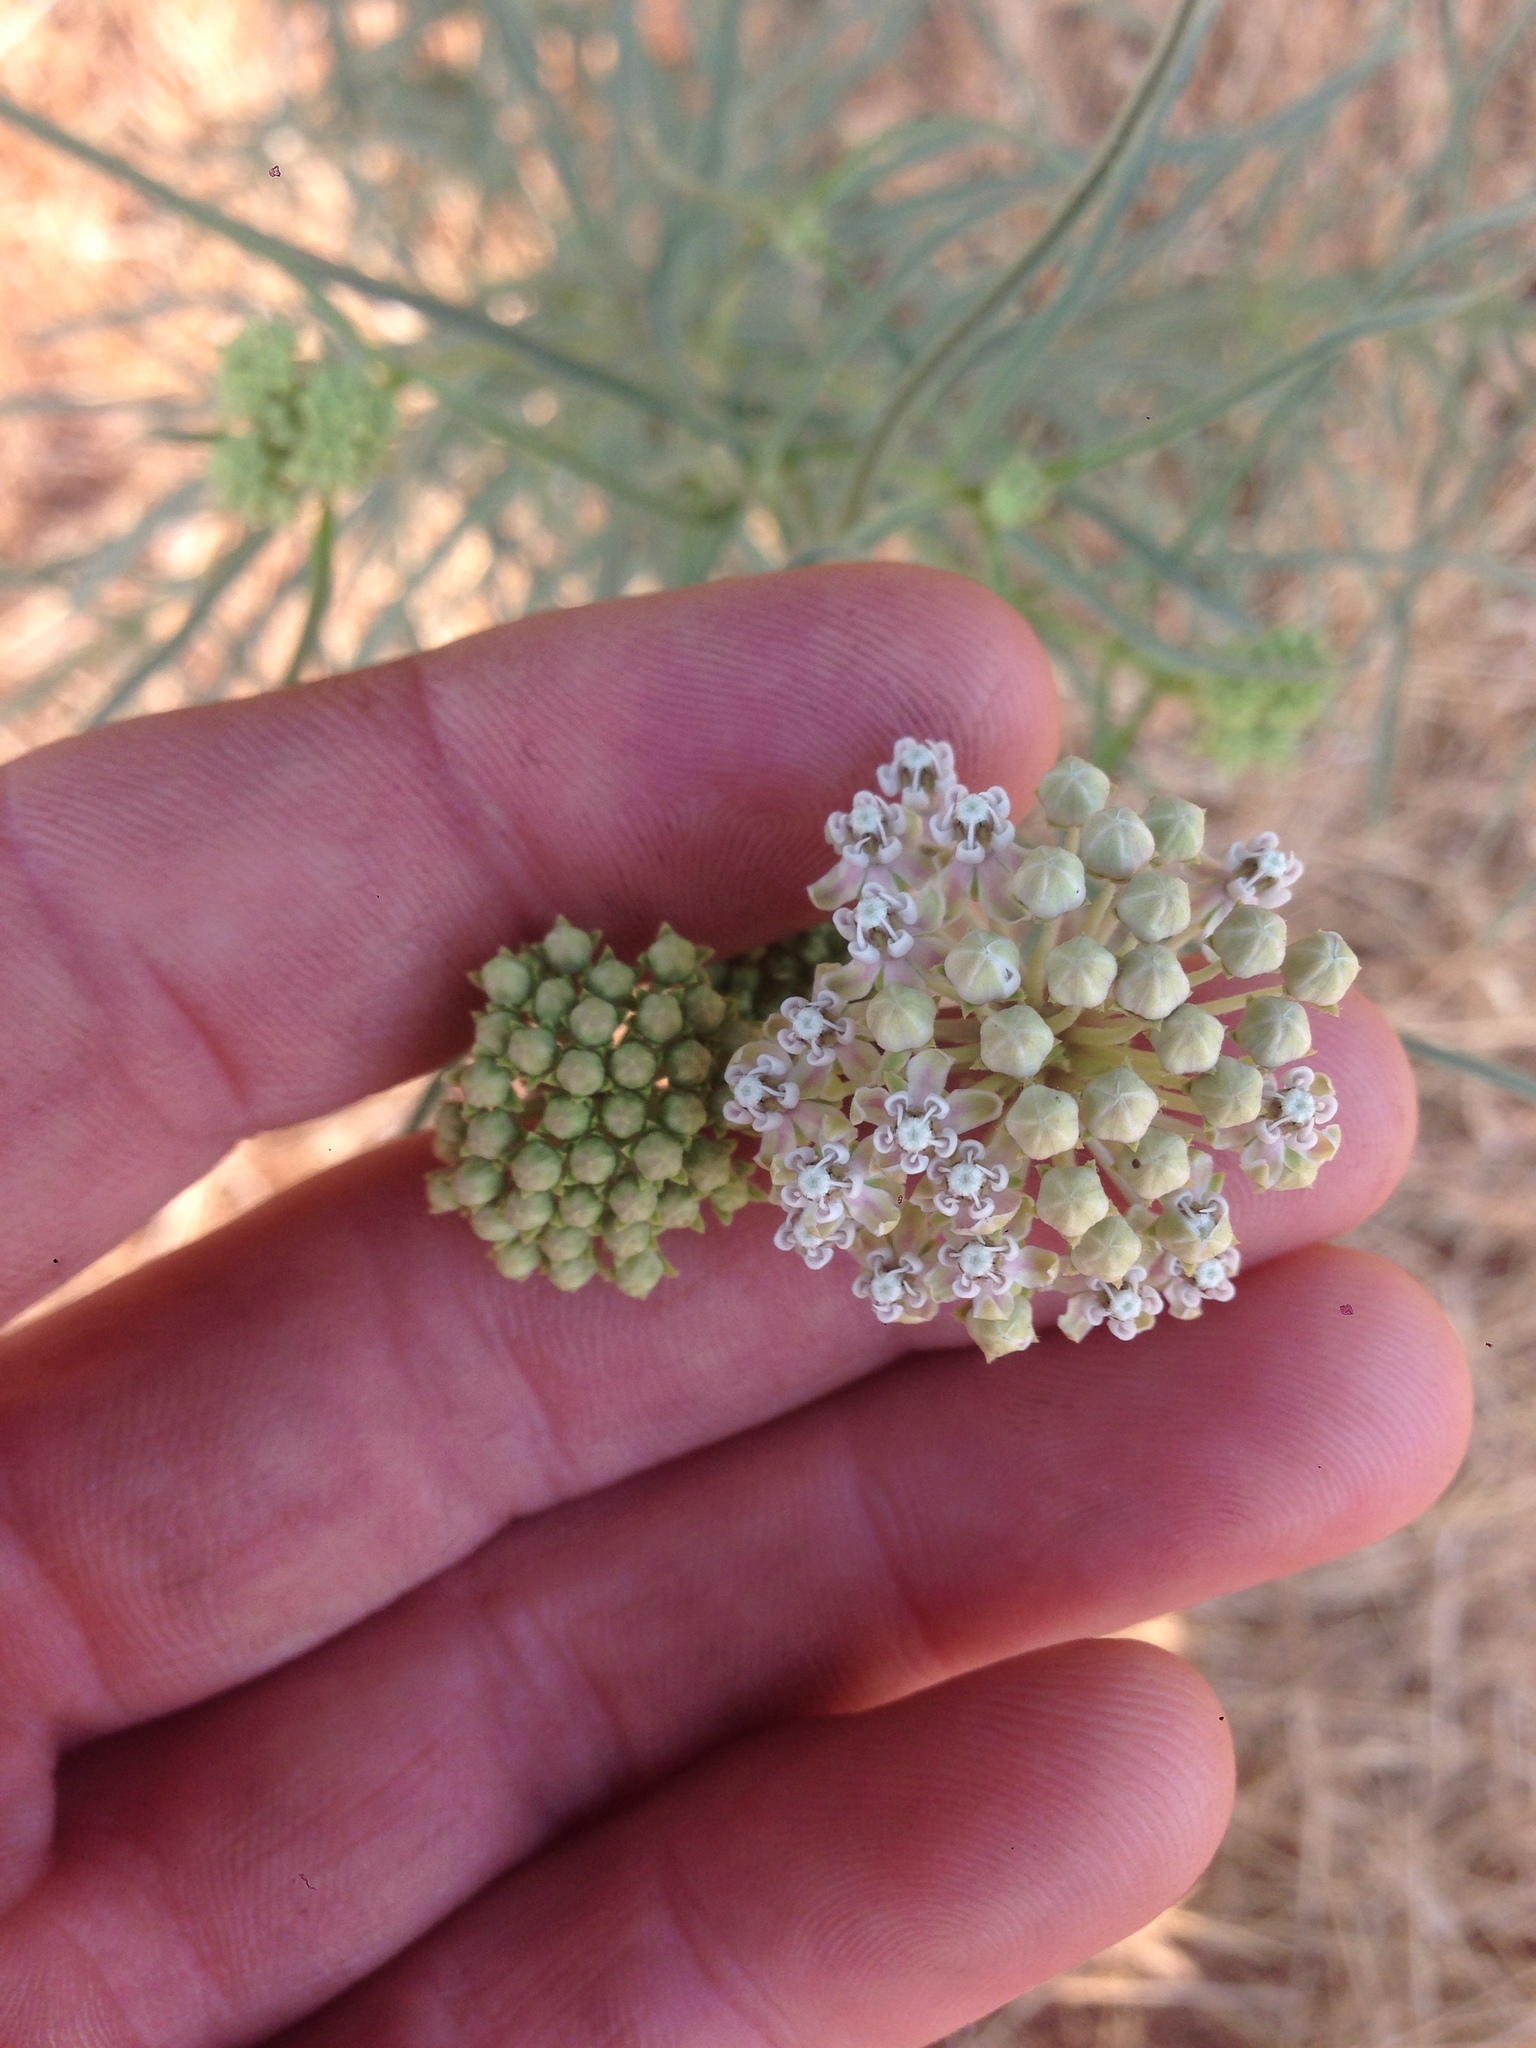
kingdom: Plantae
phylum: Tracheophyta
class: Magnoliopsida
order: Gentianales
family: Apocynaceae
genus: Asclepias
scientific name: Asclepias fascicularis
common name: Mexican milkweed
